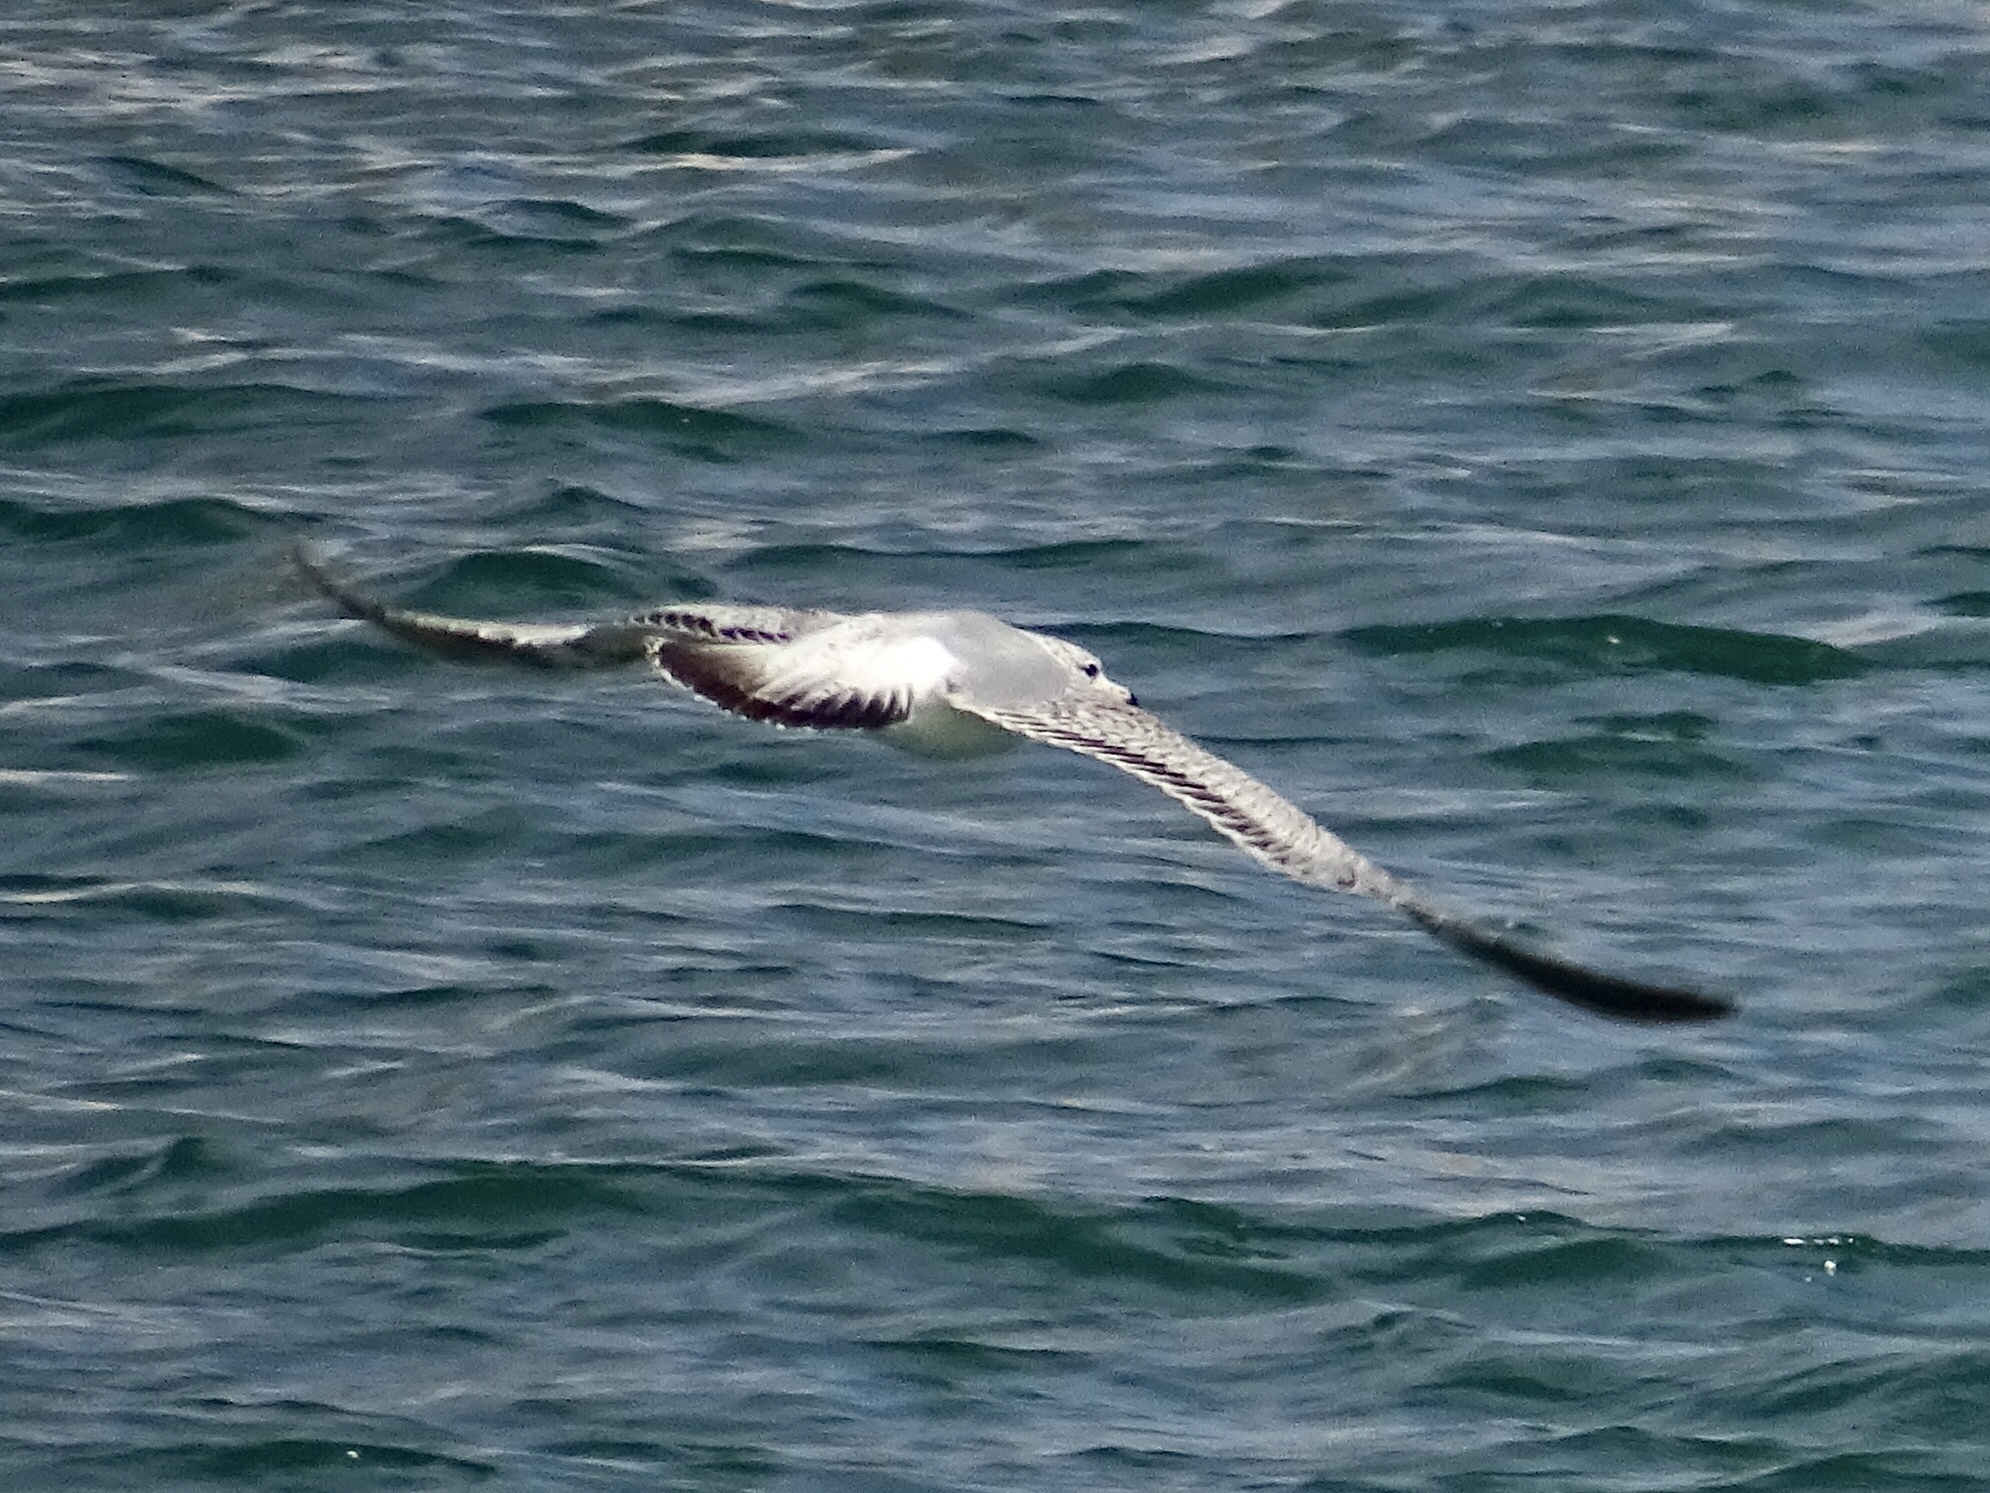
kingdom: Animalia
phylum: Chordata
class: Aves
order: Charadriiformes
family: Laridae
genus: Larus
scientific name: Larus delawarensis
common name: Ring-billed gull
